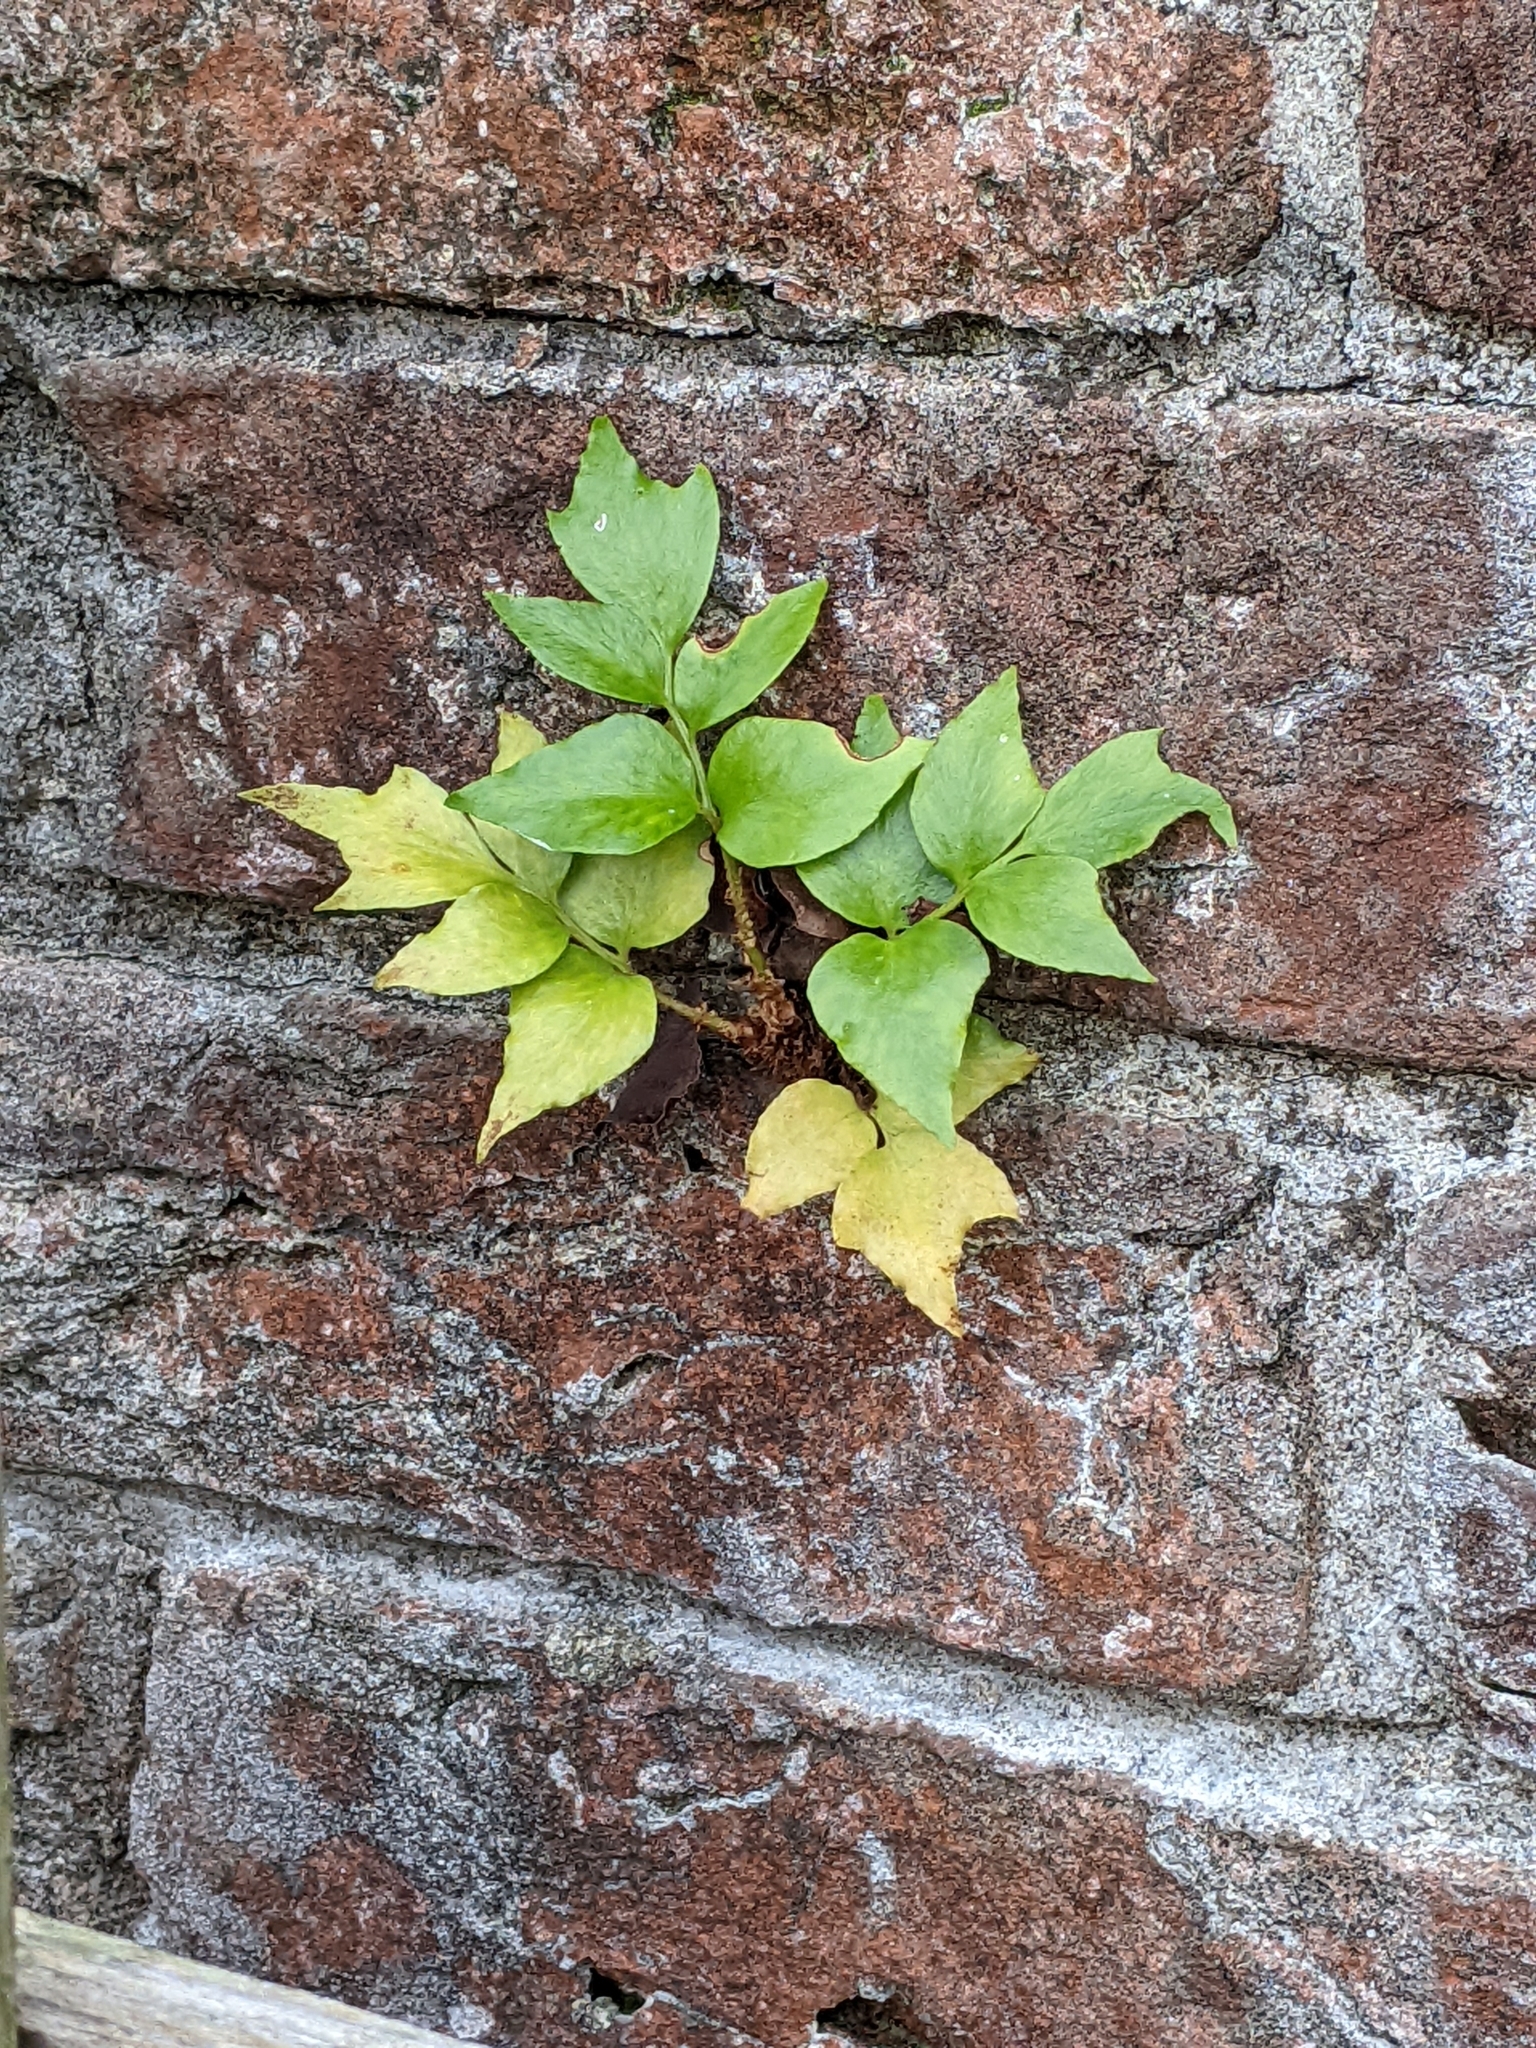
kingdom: Plantae
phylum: Tracheophyta
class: Polypodiopsida
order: Polypodiales
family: Dryopteridaceae
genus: Cyrtomium
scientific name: Cyrtomium falcatum
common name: House holly-fern
